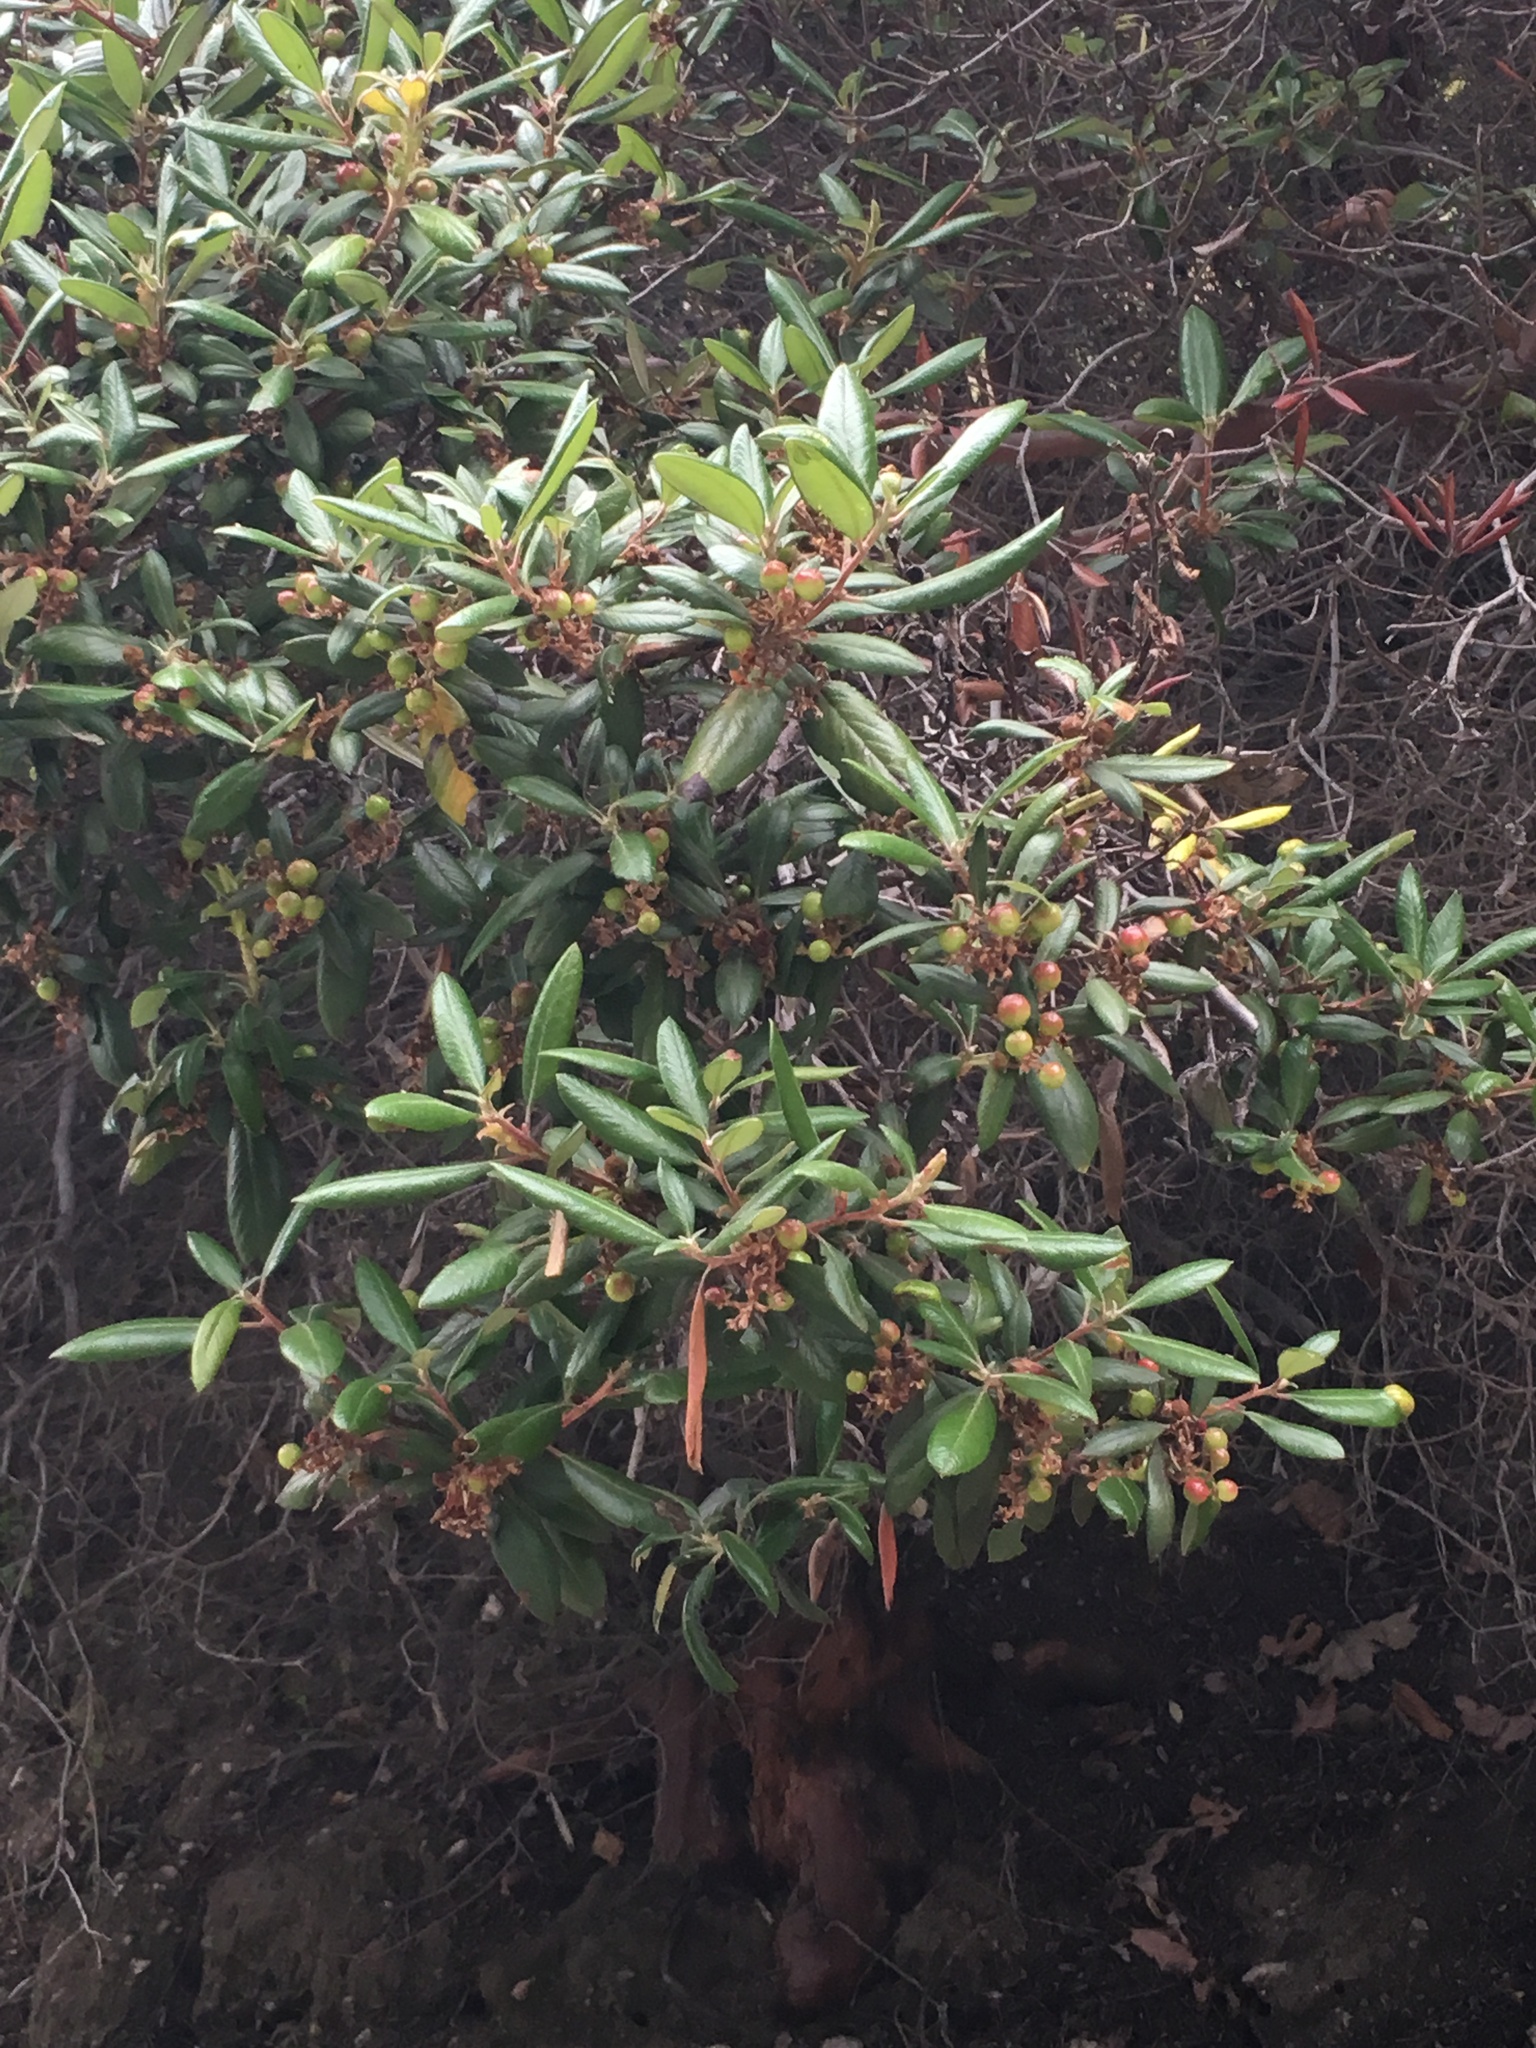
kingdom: Plantae
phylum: Tracheophyta
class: Magnoliopsida
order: Ericales
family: Ericaceae
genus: Arctostaphylos
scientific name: Arctostaphylos bicolor
